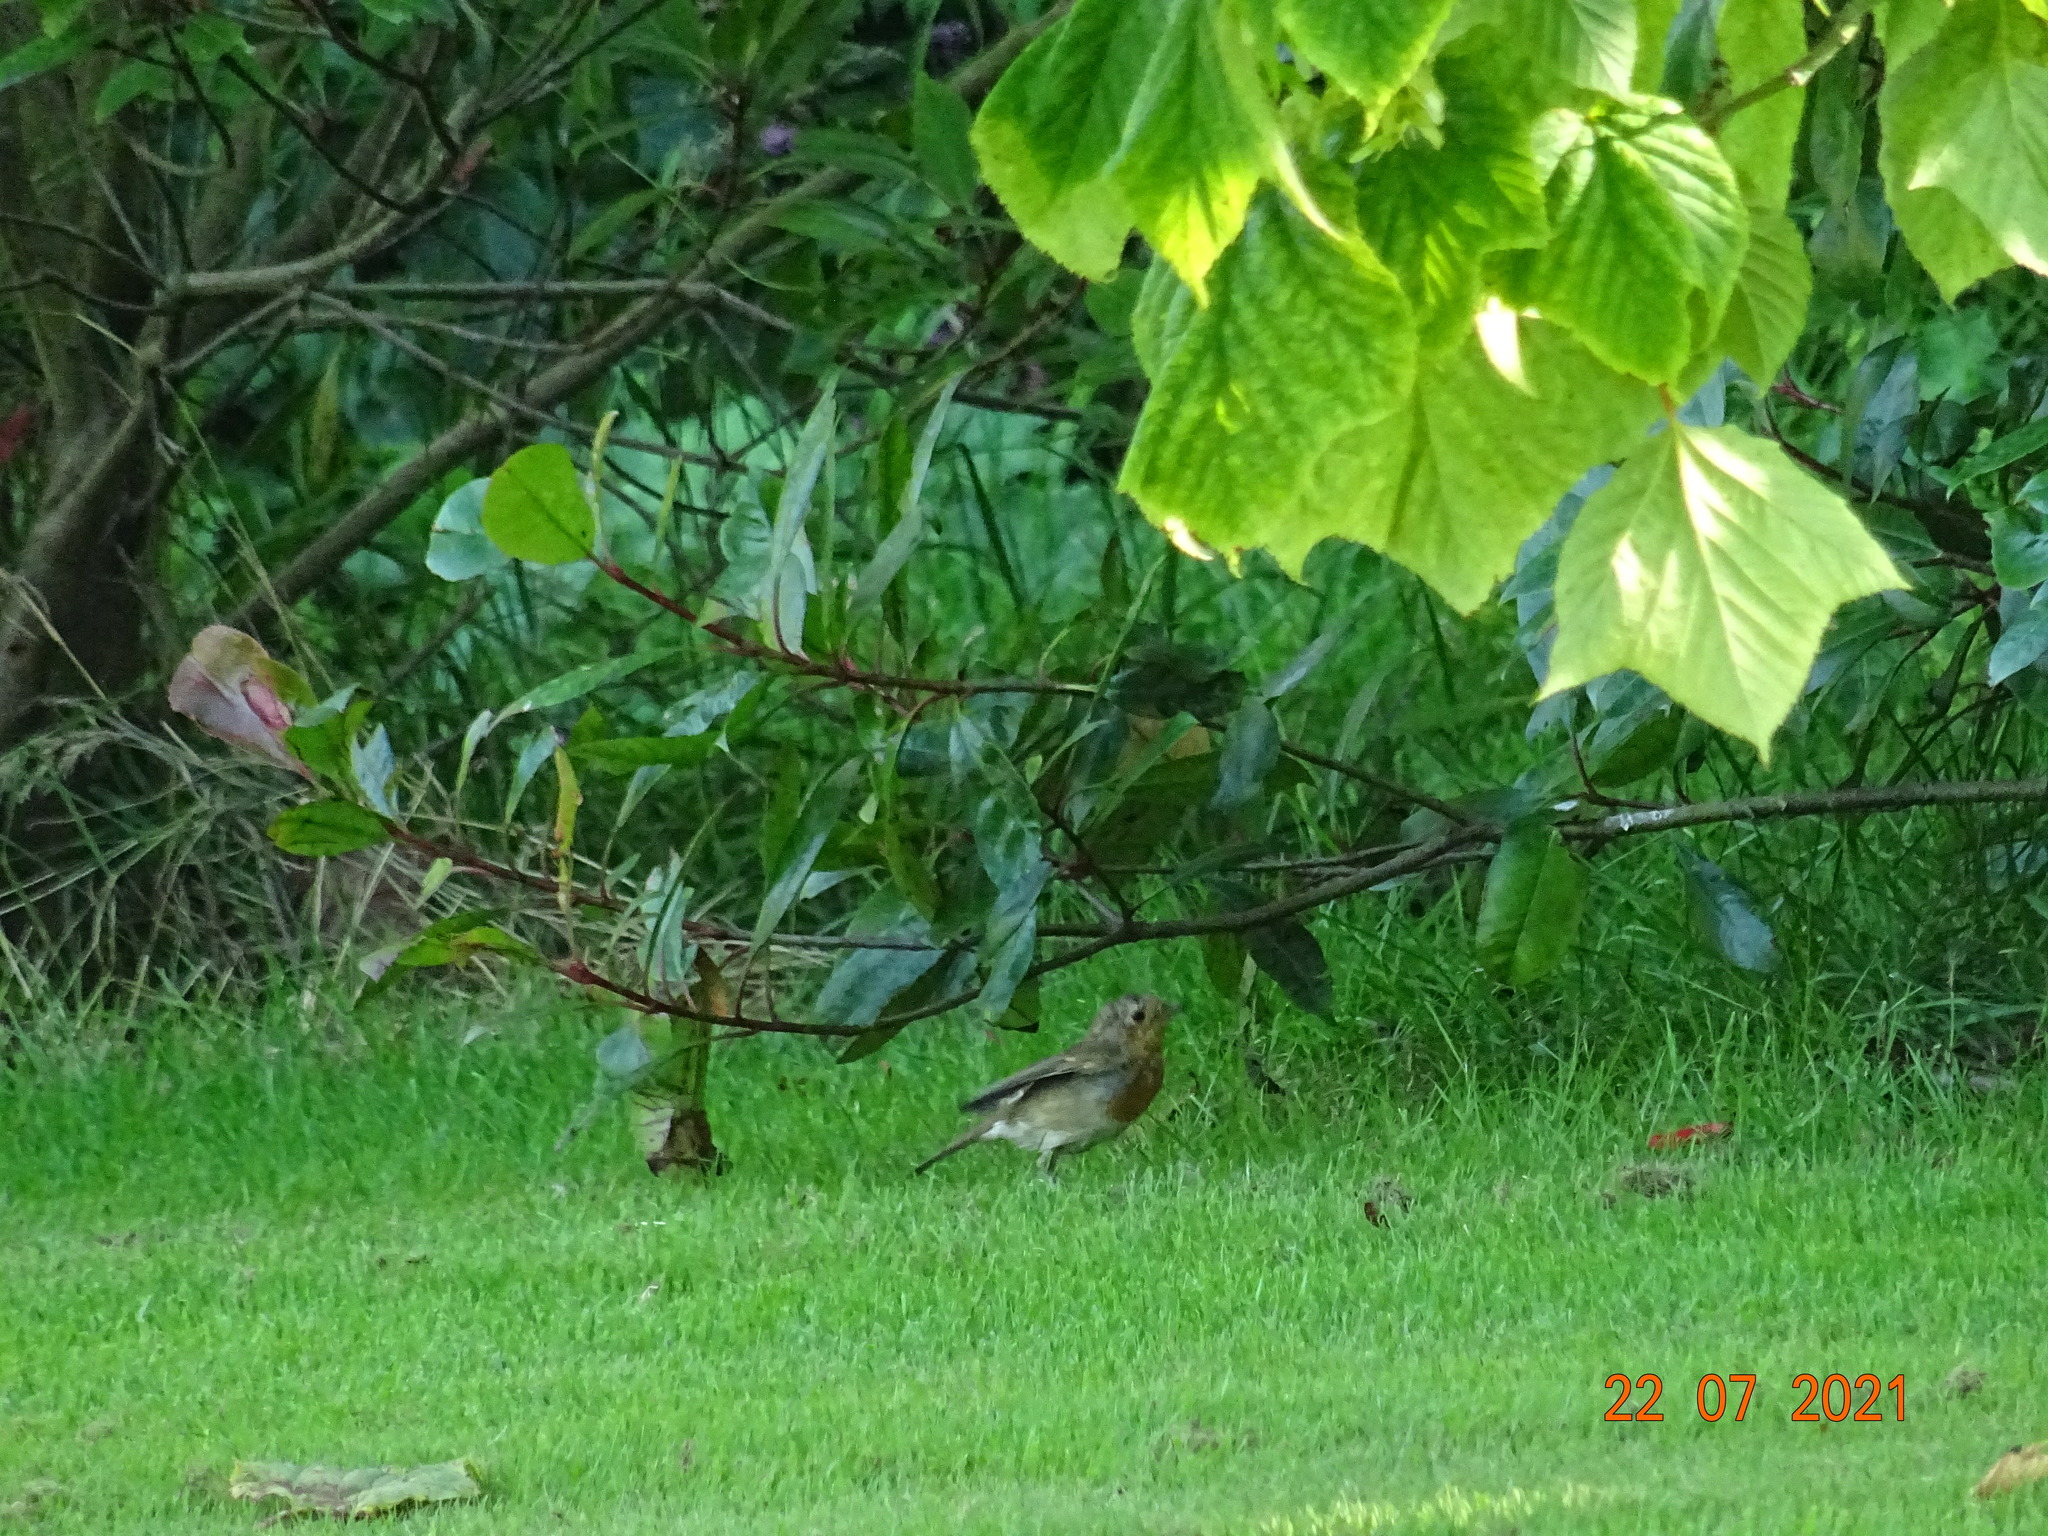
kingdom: Animalia
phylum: Chordata
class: Aves
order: Passeriformes
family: Muscicapidae
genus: Erithacus
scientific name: Erithacus rubecula
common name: European robin
